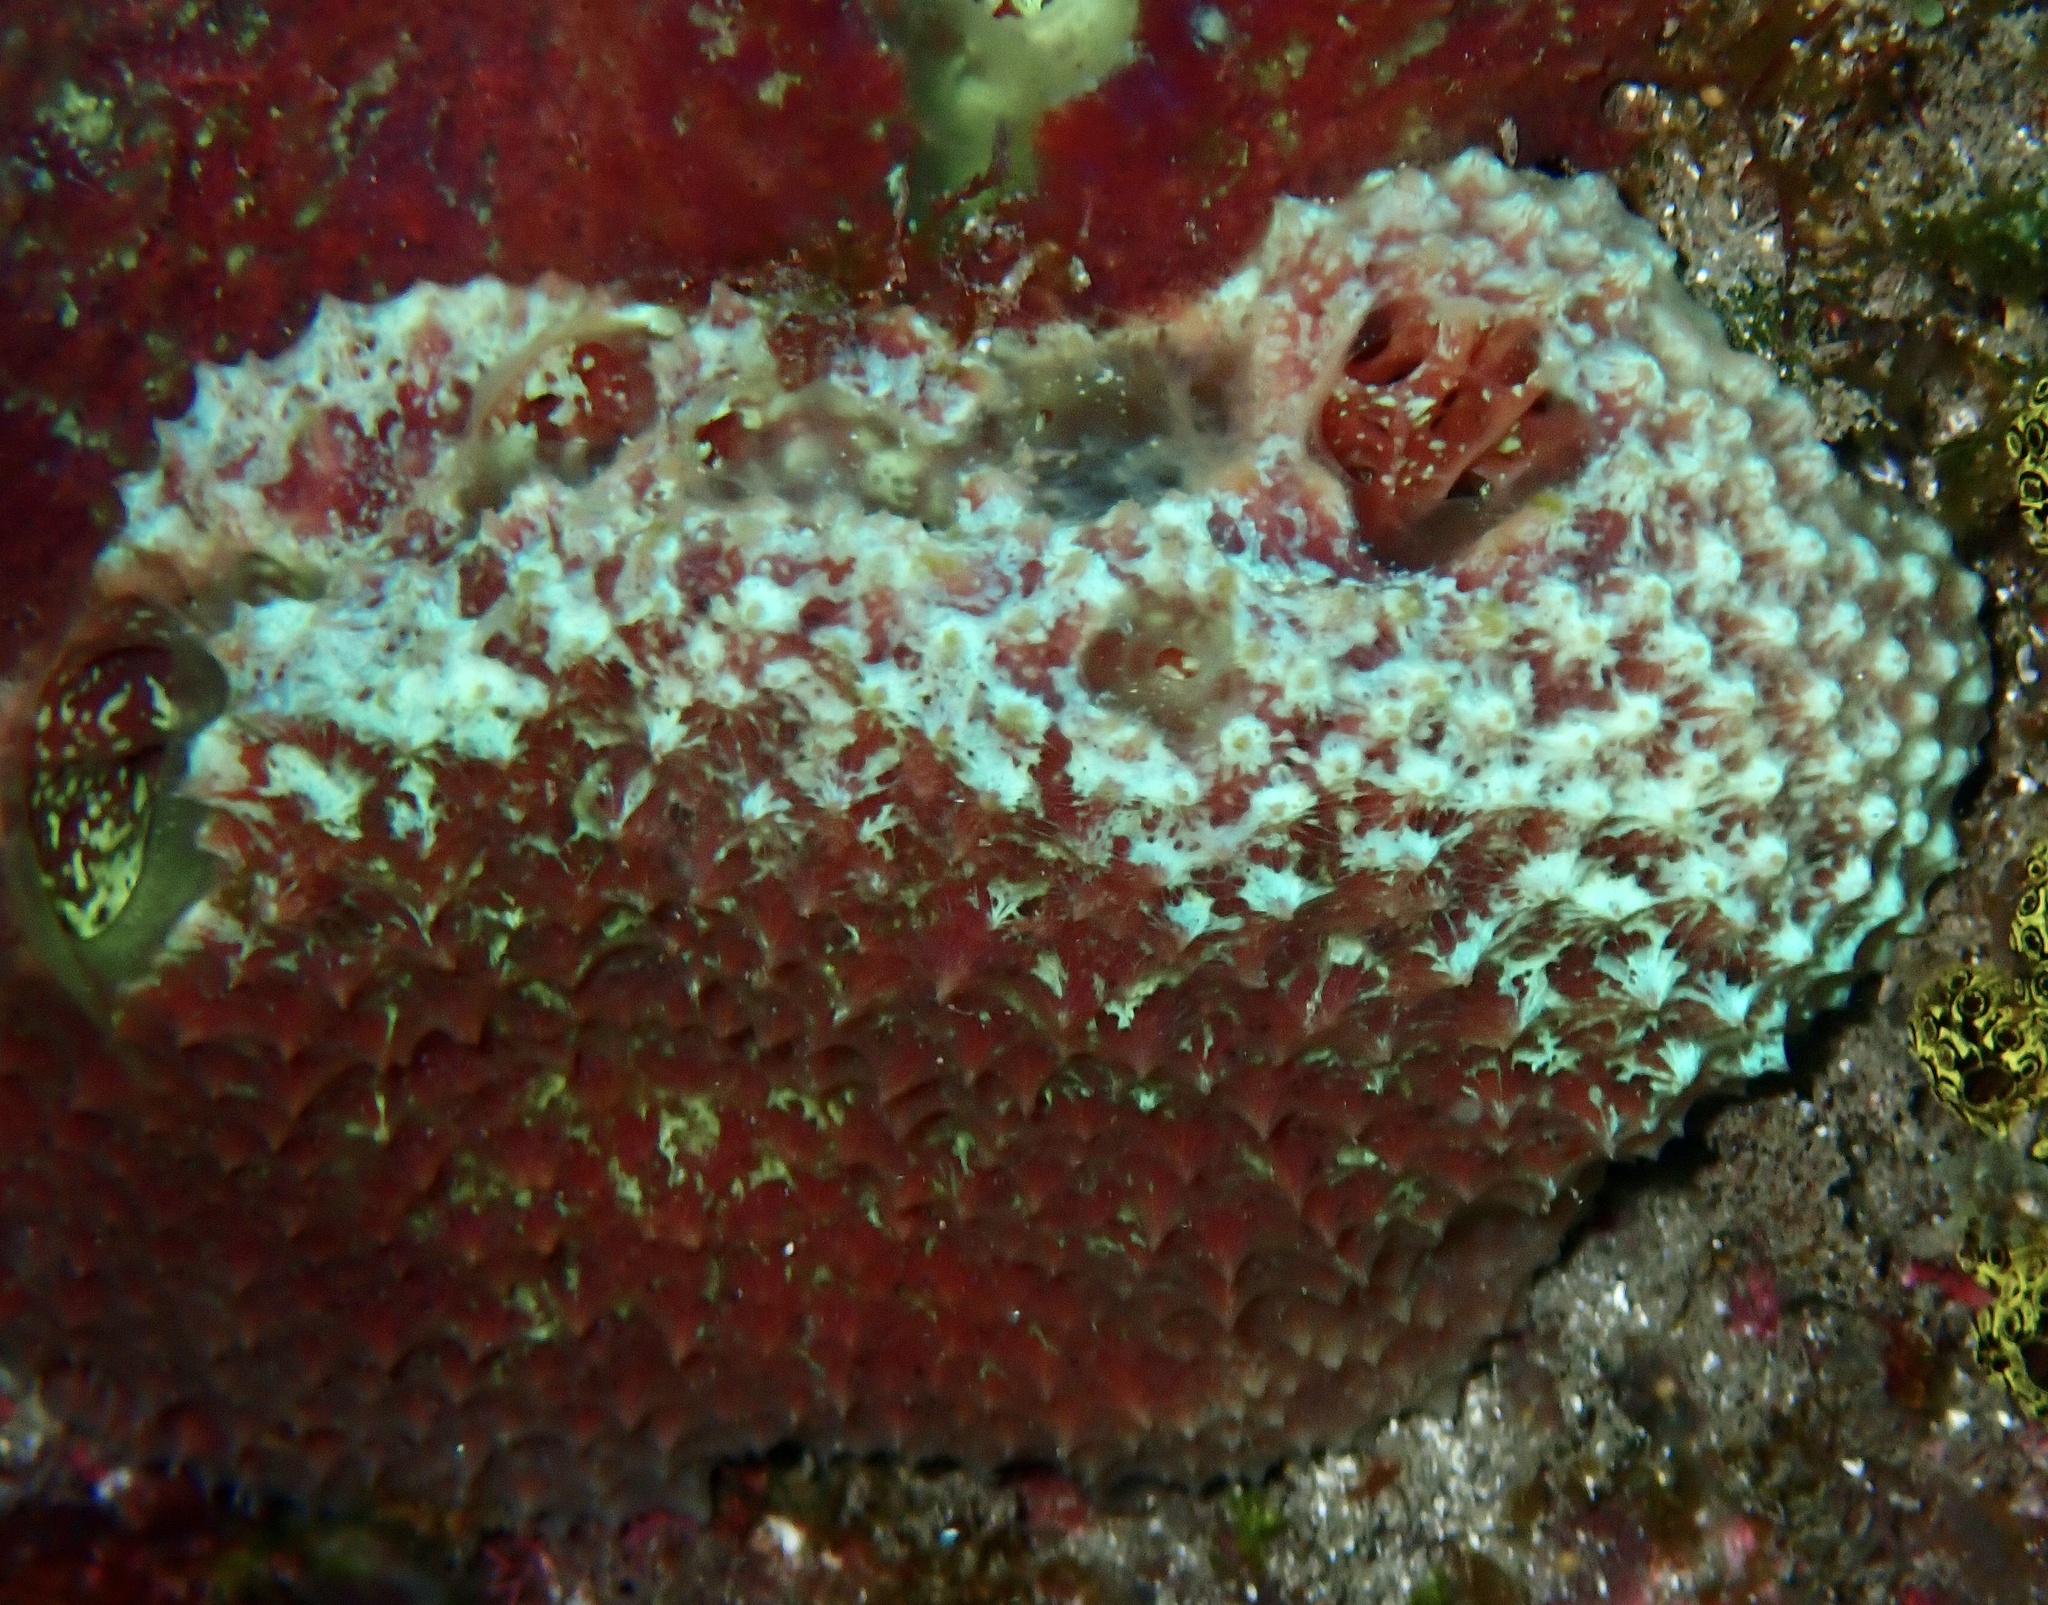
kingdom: Animalia
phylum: Porifera
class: Demospongiae
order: Poecilosclerida
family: Mycalidae
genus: Mycale
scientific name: Mycale laxissima
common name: Strawberry vase sponge
